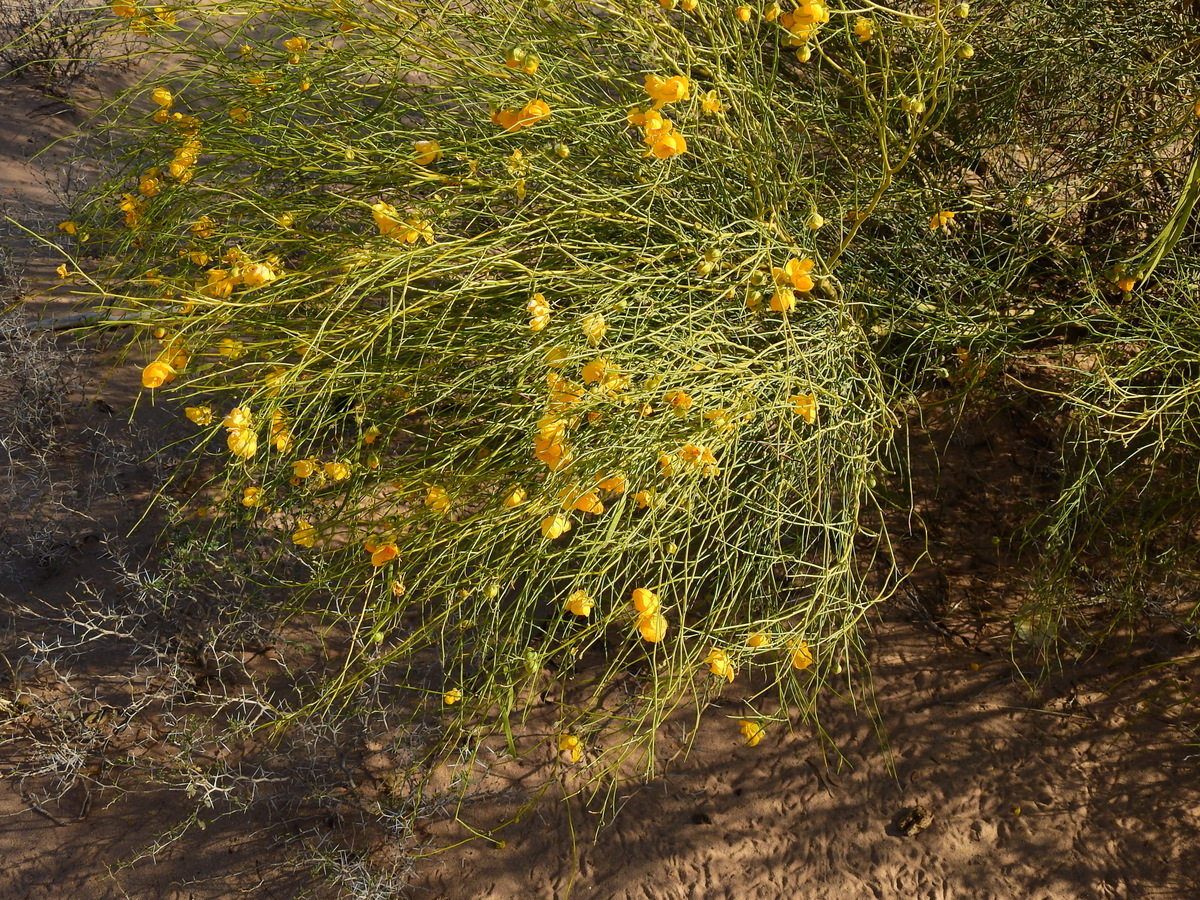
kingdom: Plantae
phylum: Tracheophyta
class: Magnoliopsida
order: Fabales
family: Fabaceae
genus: Senna
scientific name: Senna aphylla
